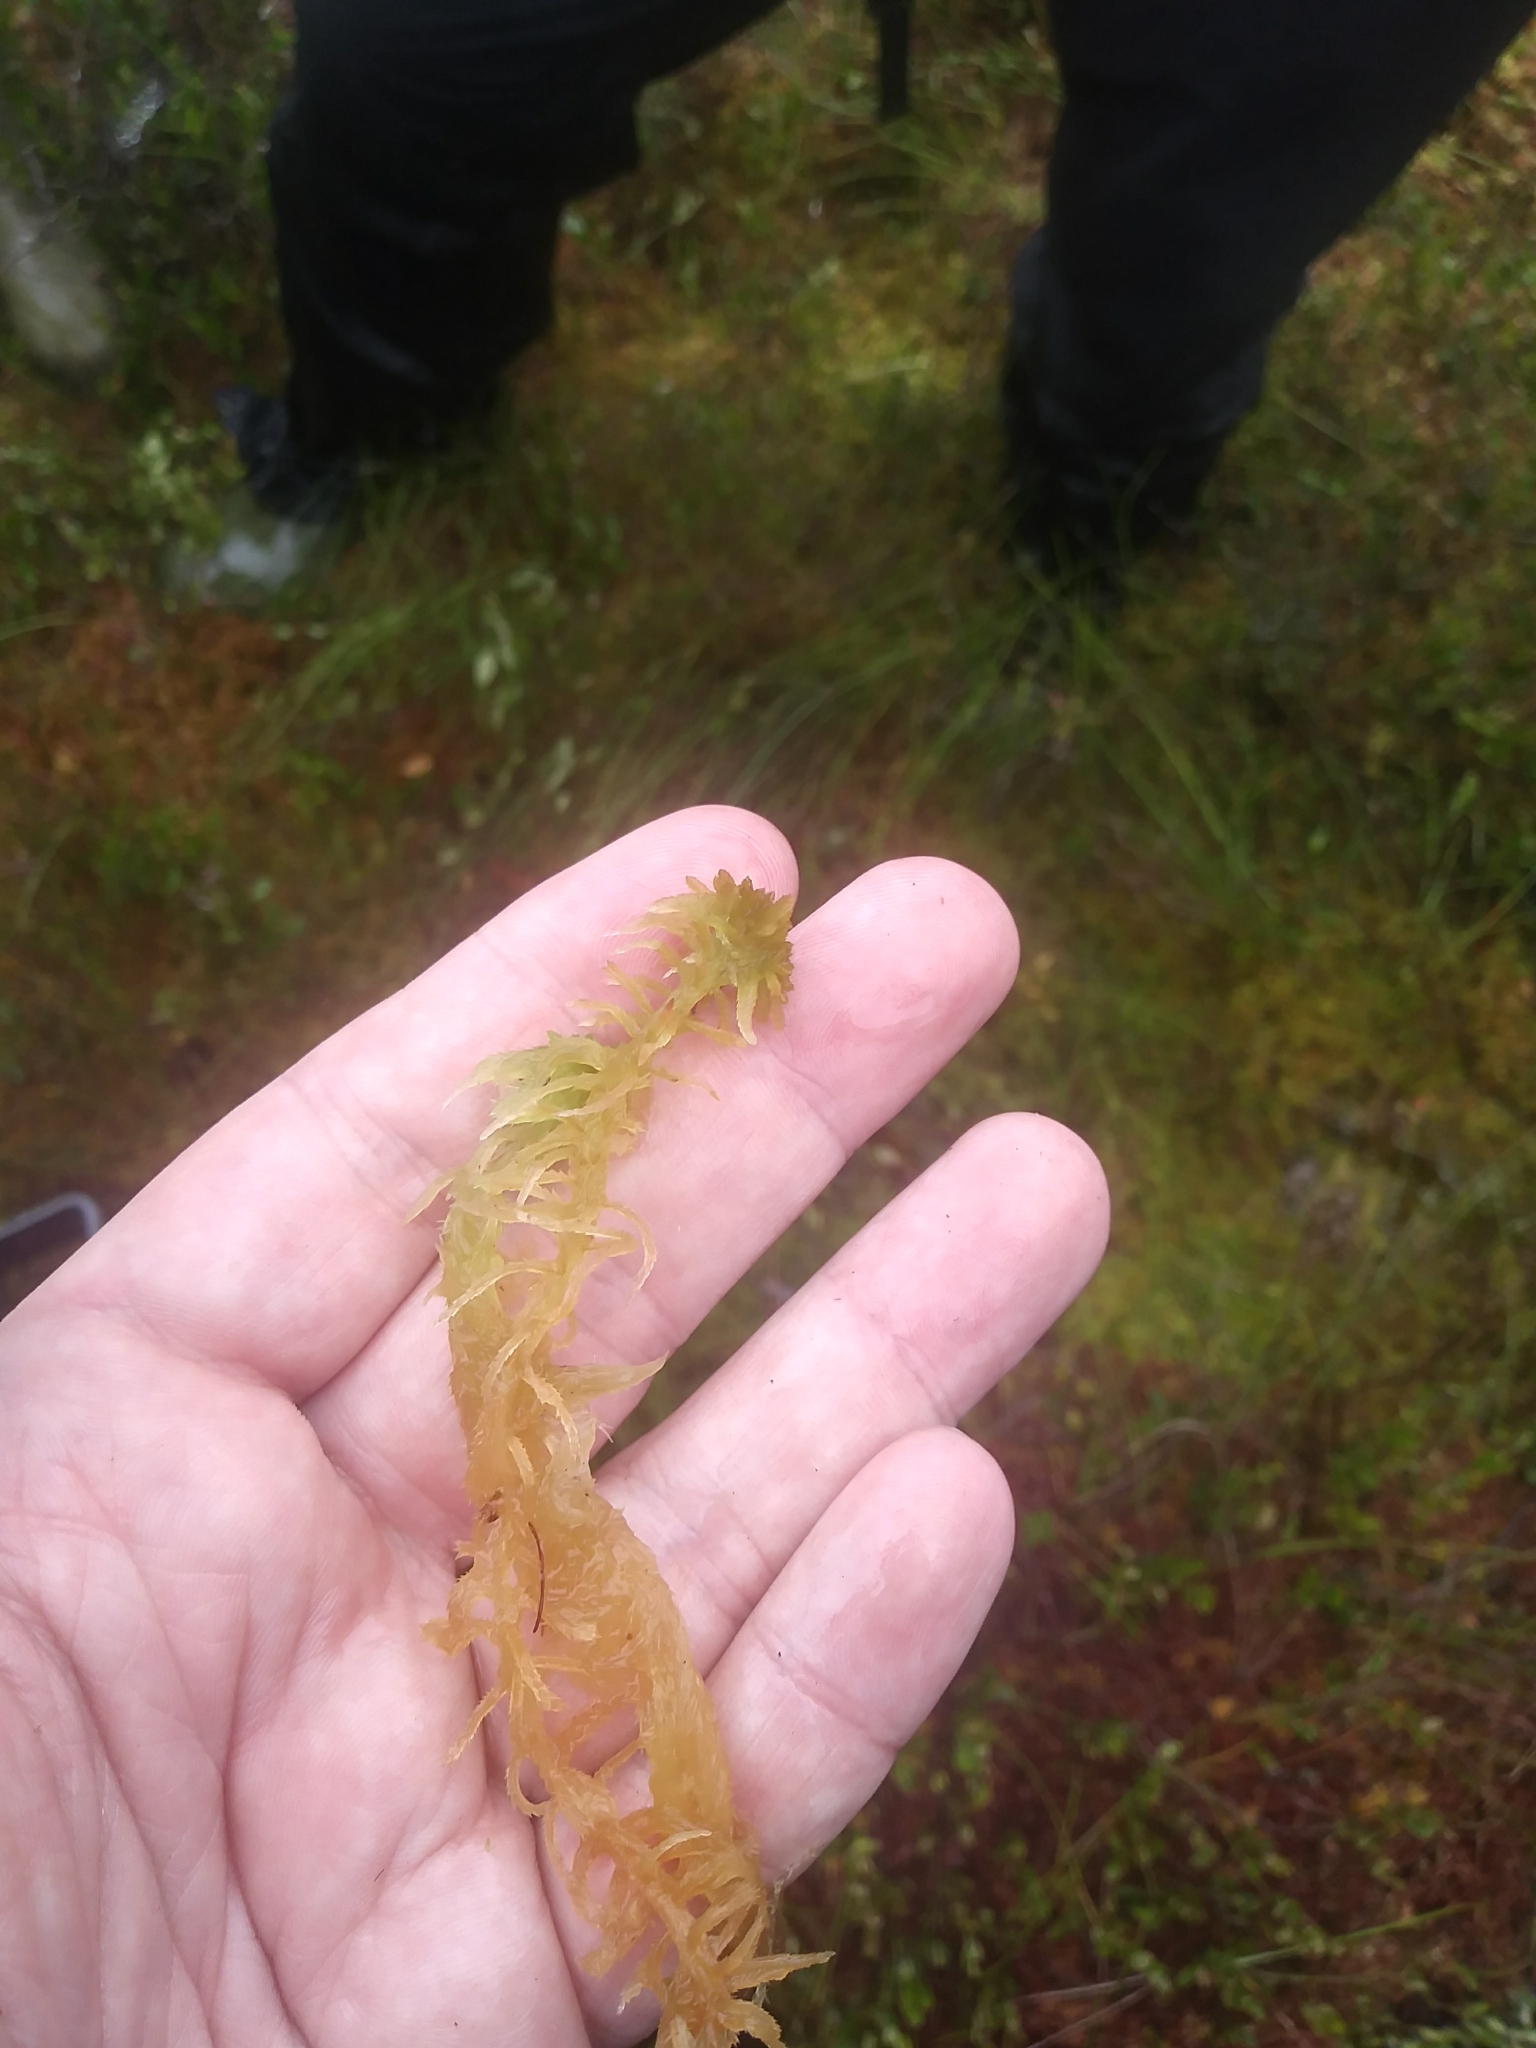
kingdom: Plantae
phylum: Bryophyta
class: Sphagnopsida
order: Sphagnales
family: Sphagnaceae
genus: Sphagnum
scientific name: Sphagnum cuspidatum
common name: Feathery peat moss
